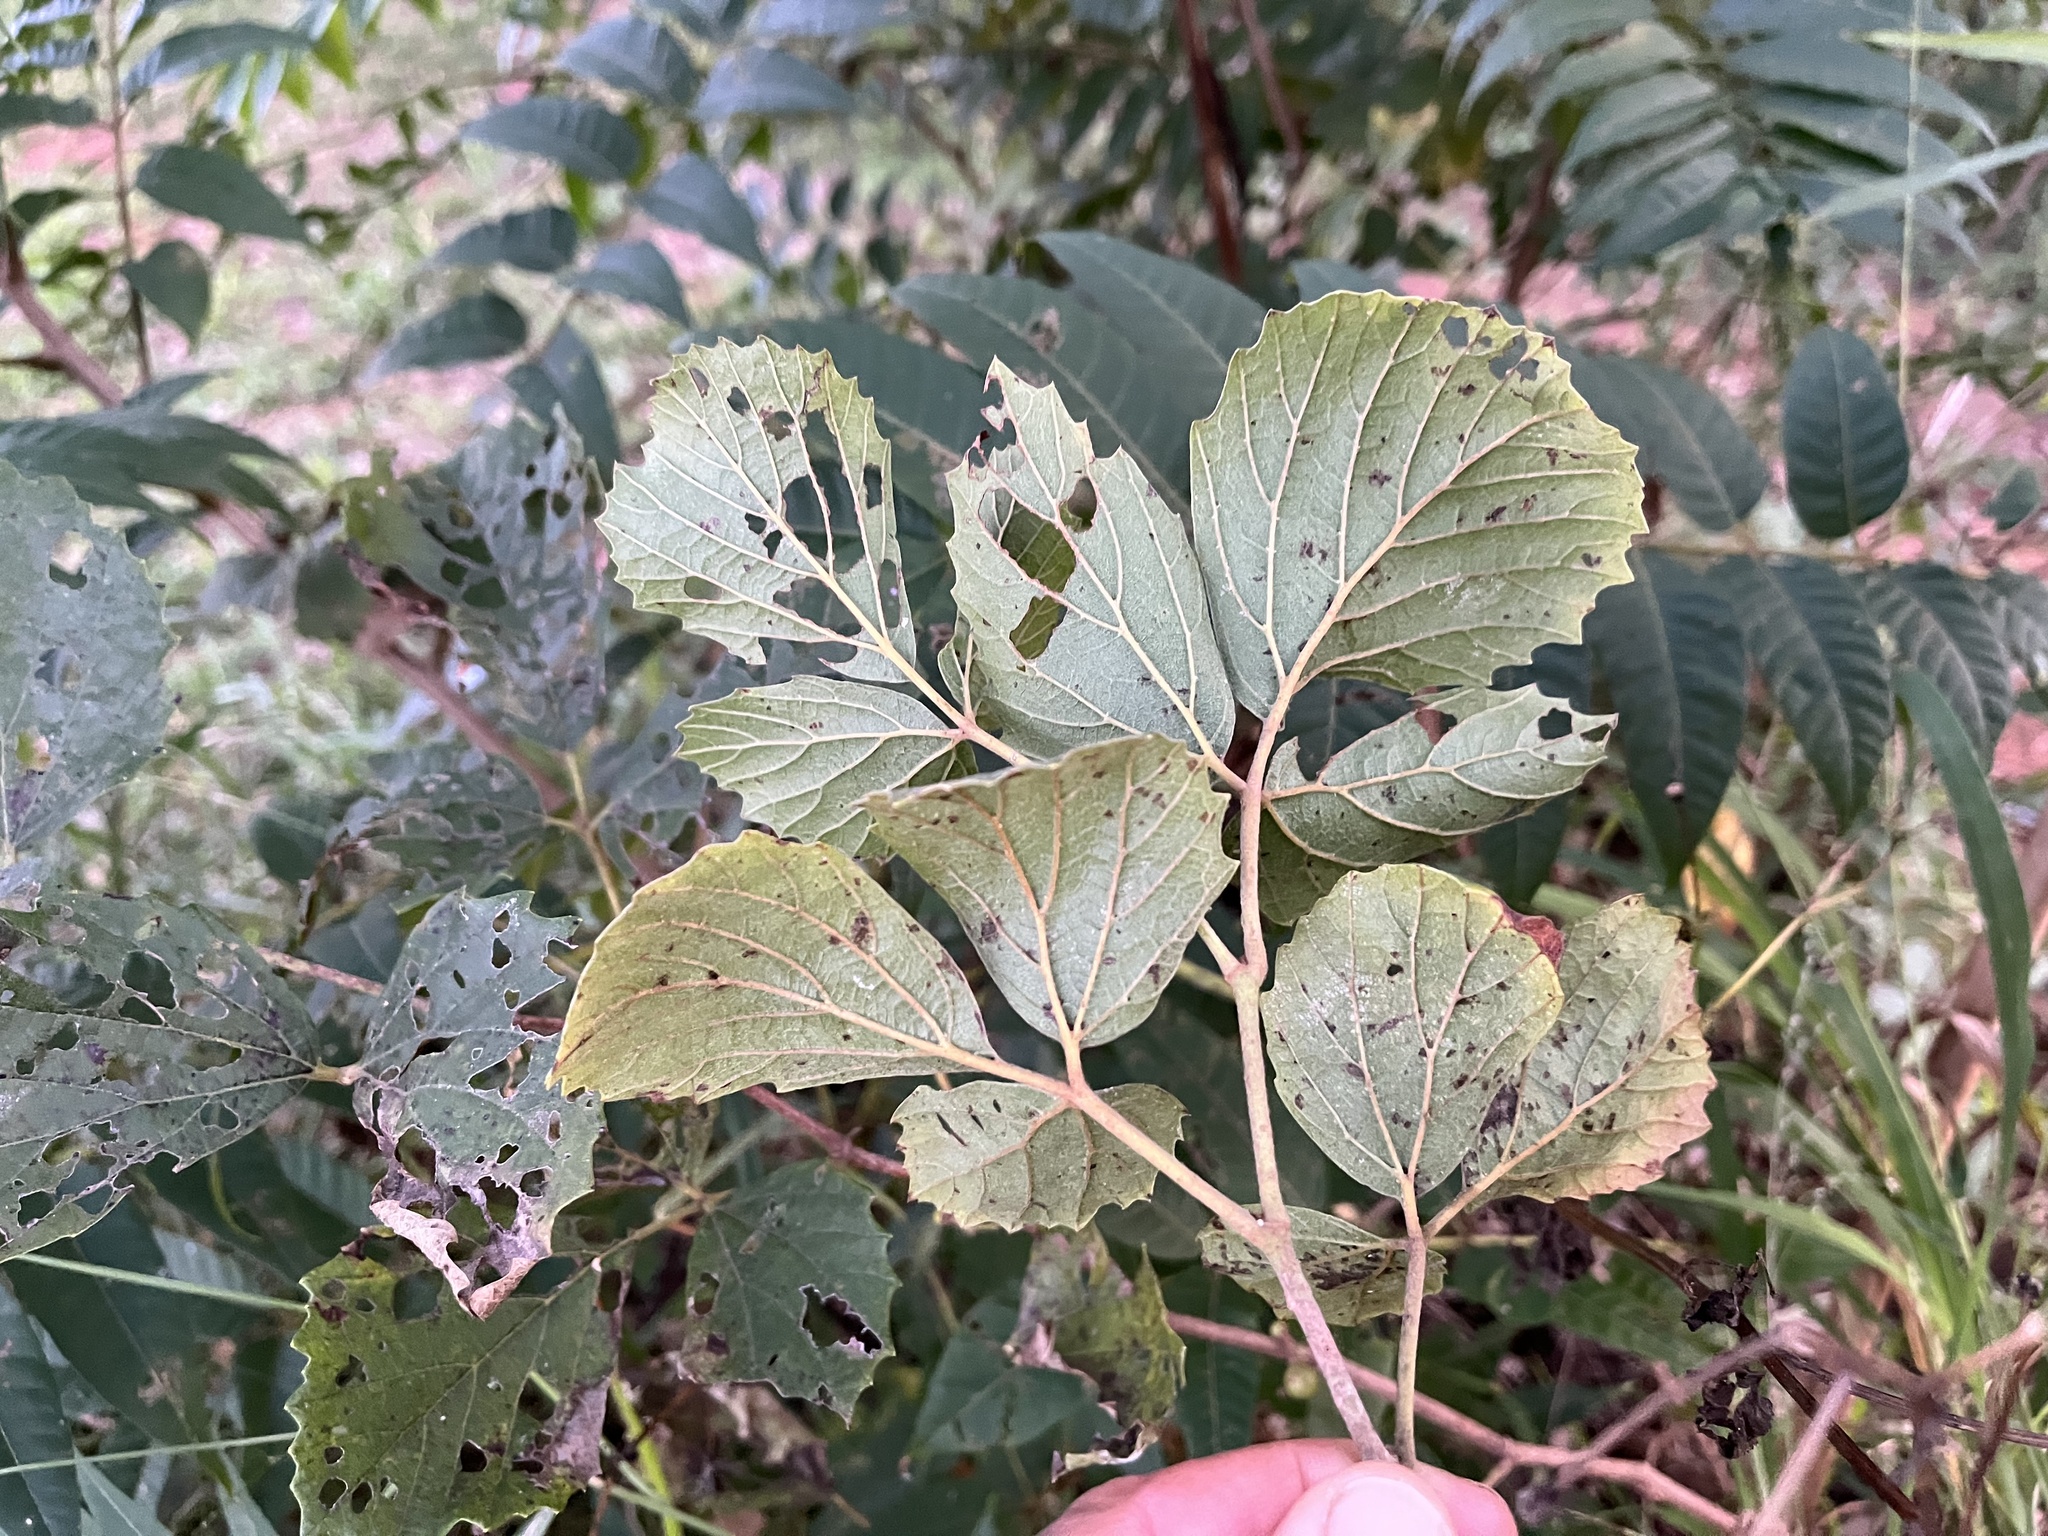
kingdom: Plantae
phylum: Tracheophyta
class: Magnoliopsida
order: Vitales
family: Vitaceae
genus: Rhoicissus
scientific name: Rhoicissus tridentata
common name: Common forest grape
